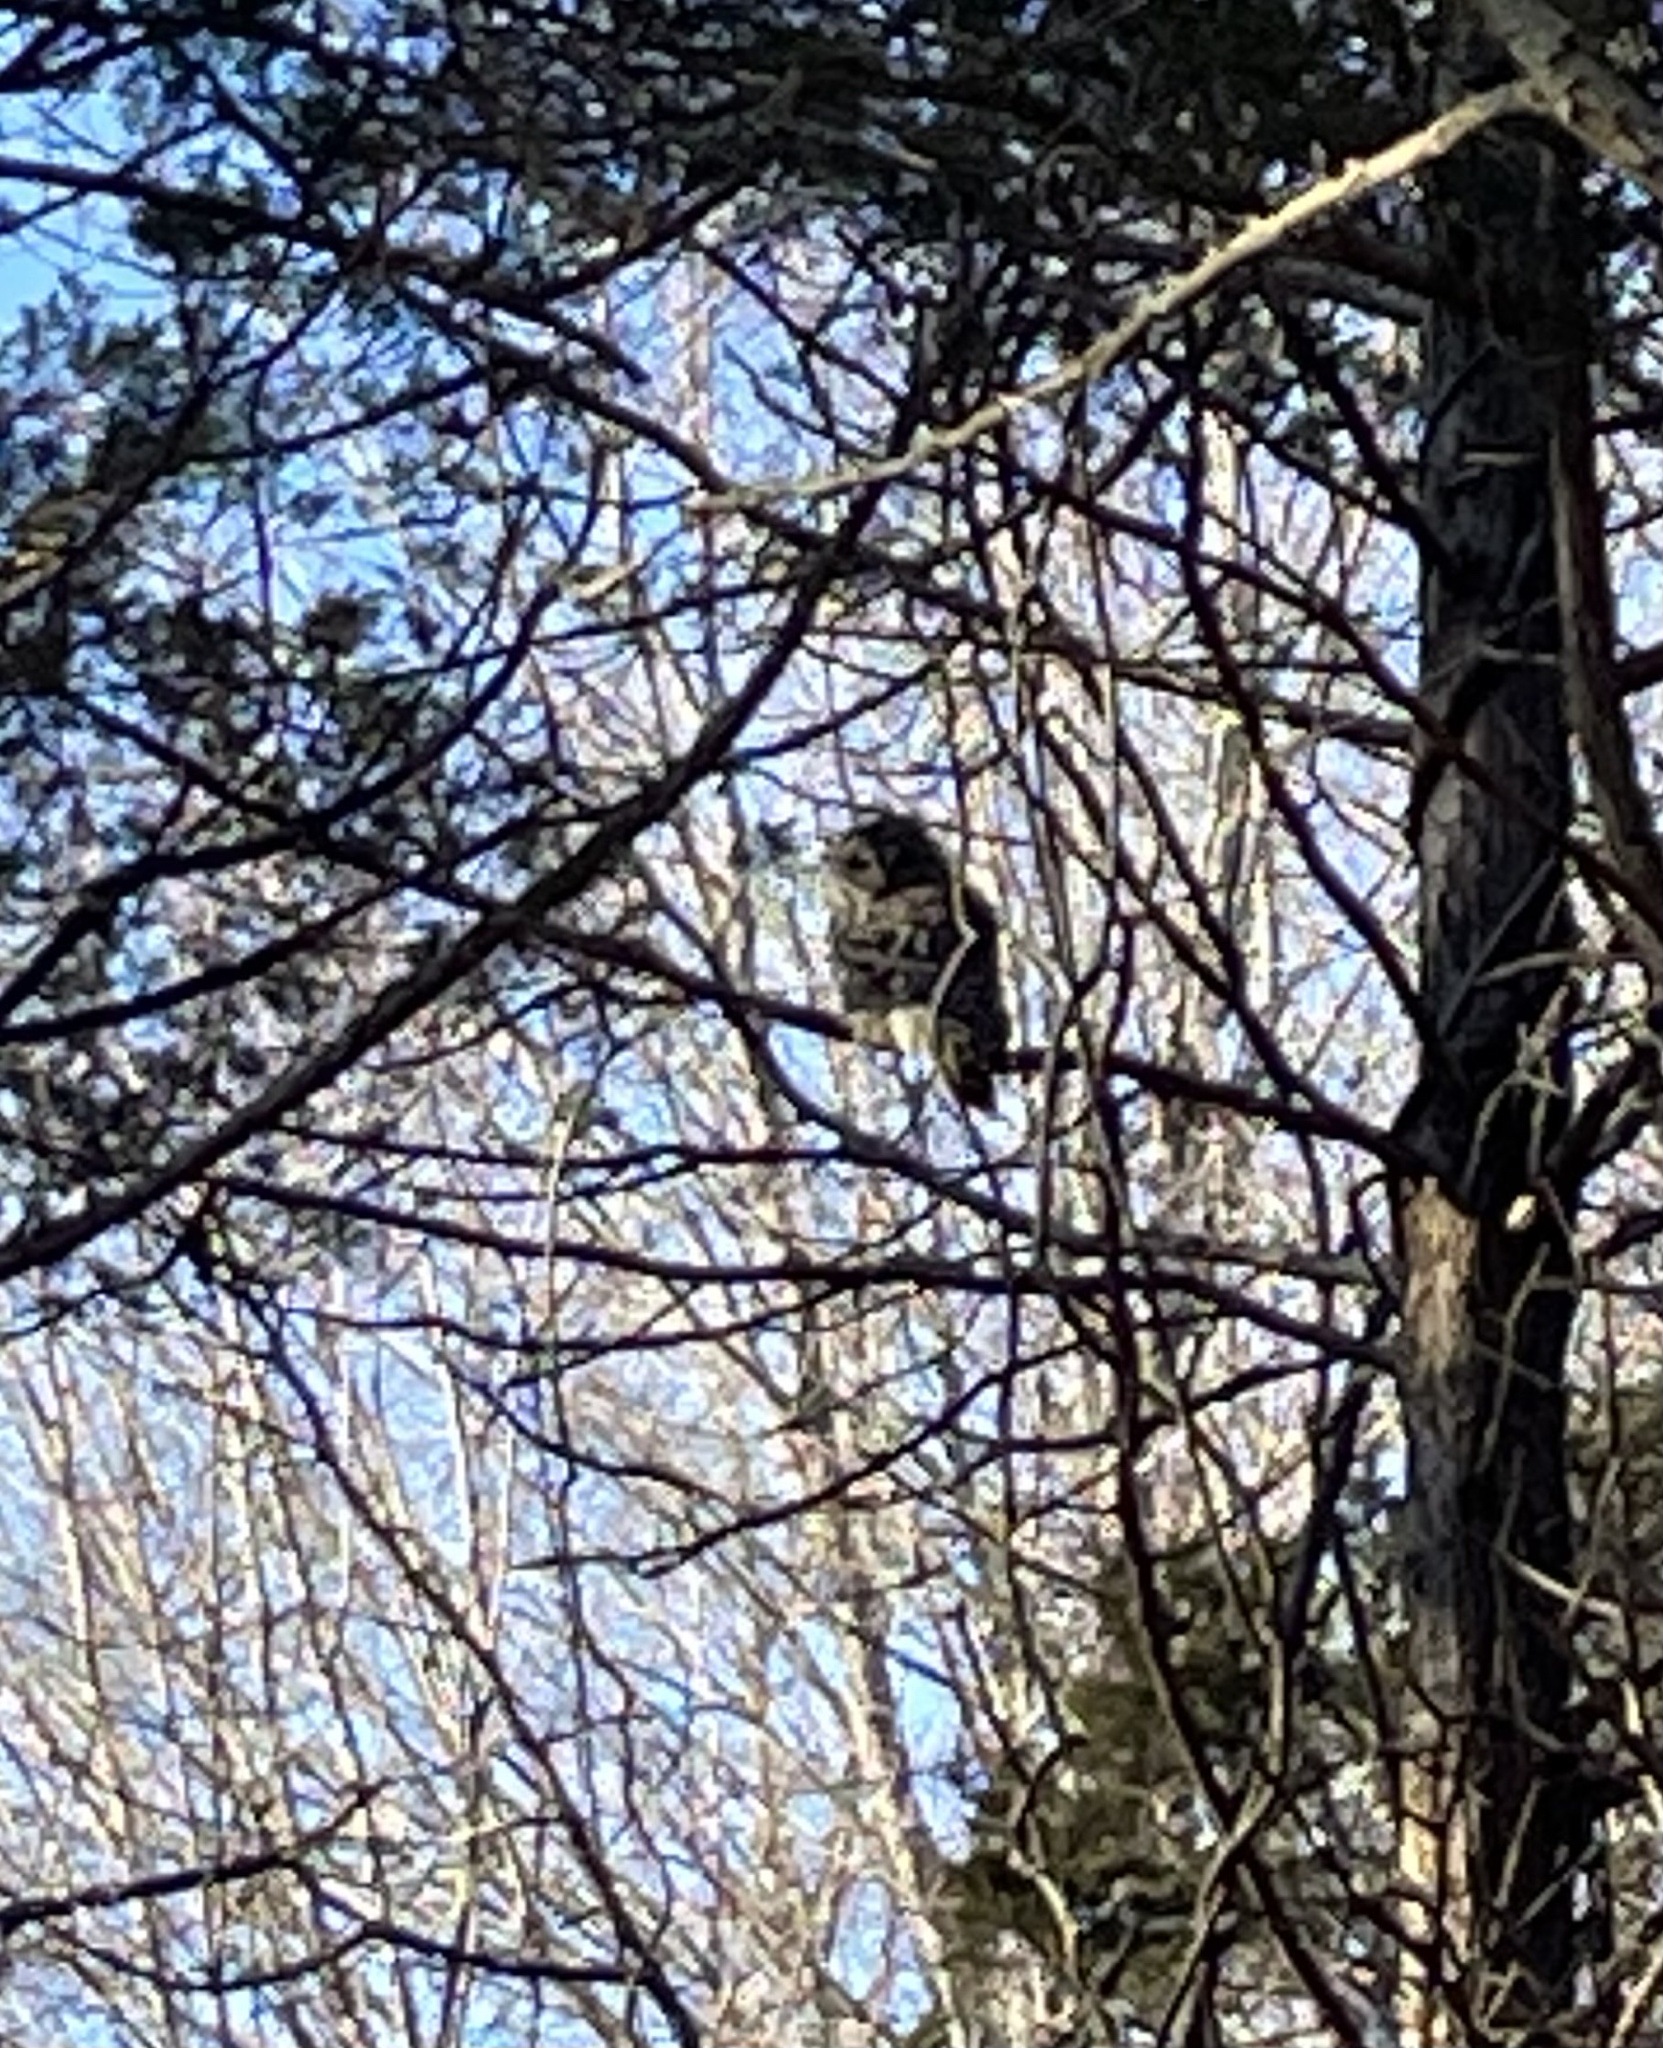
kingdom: Animalia
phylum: Chordata
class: Aves
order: Strigiformes
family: Strigidae
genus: Strix
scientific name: Strix varia
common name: Barred owl
